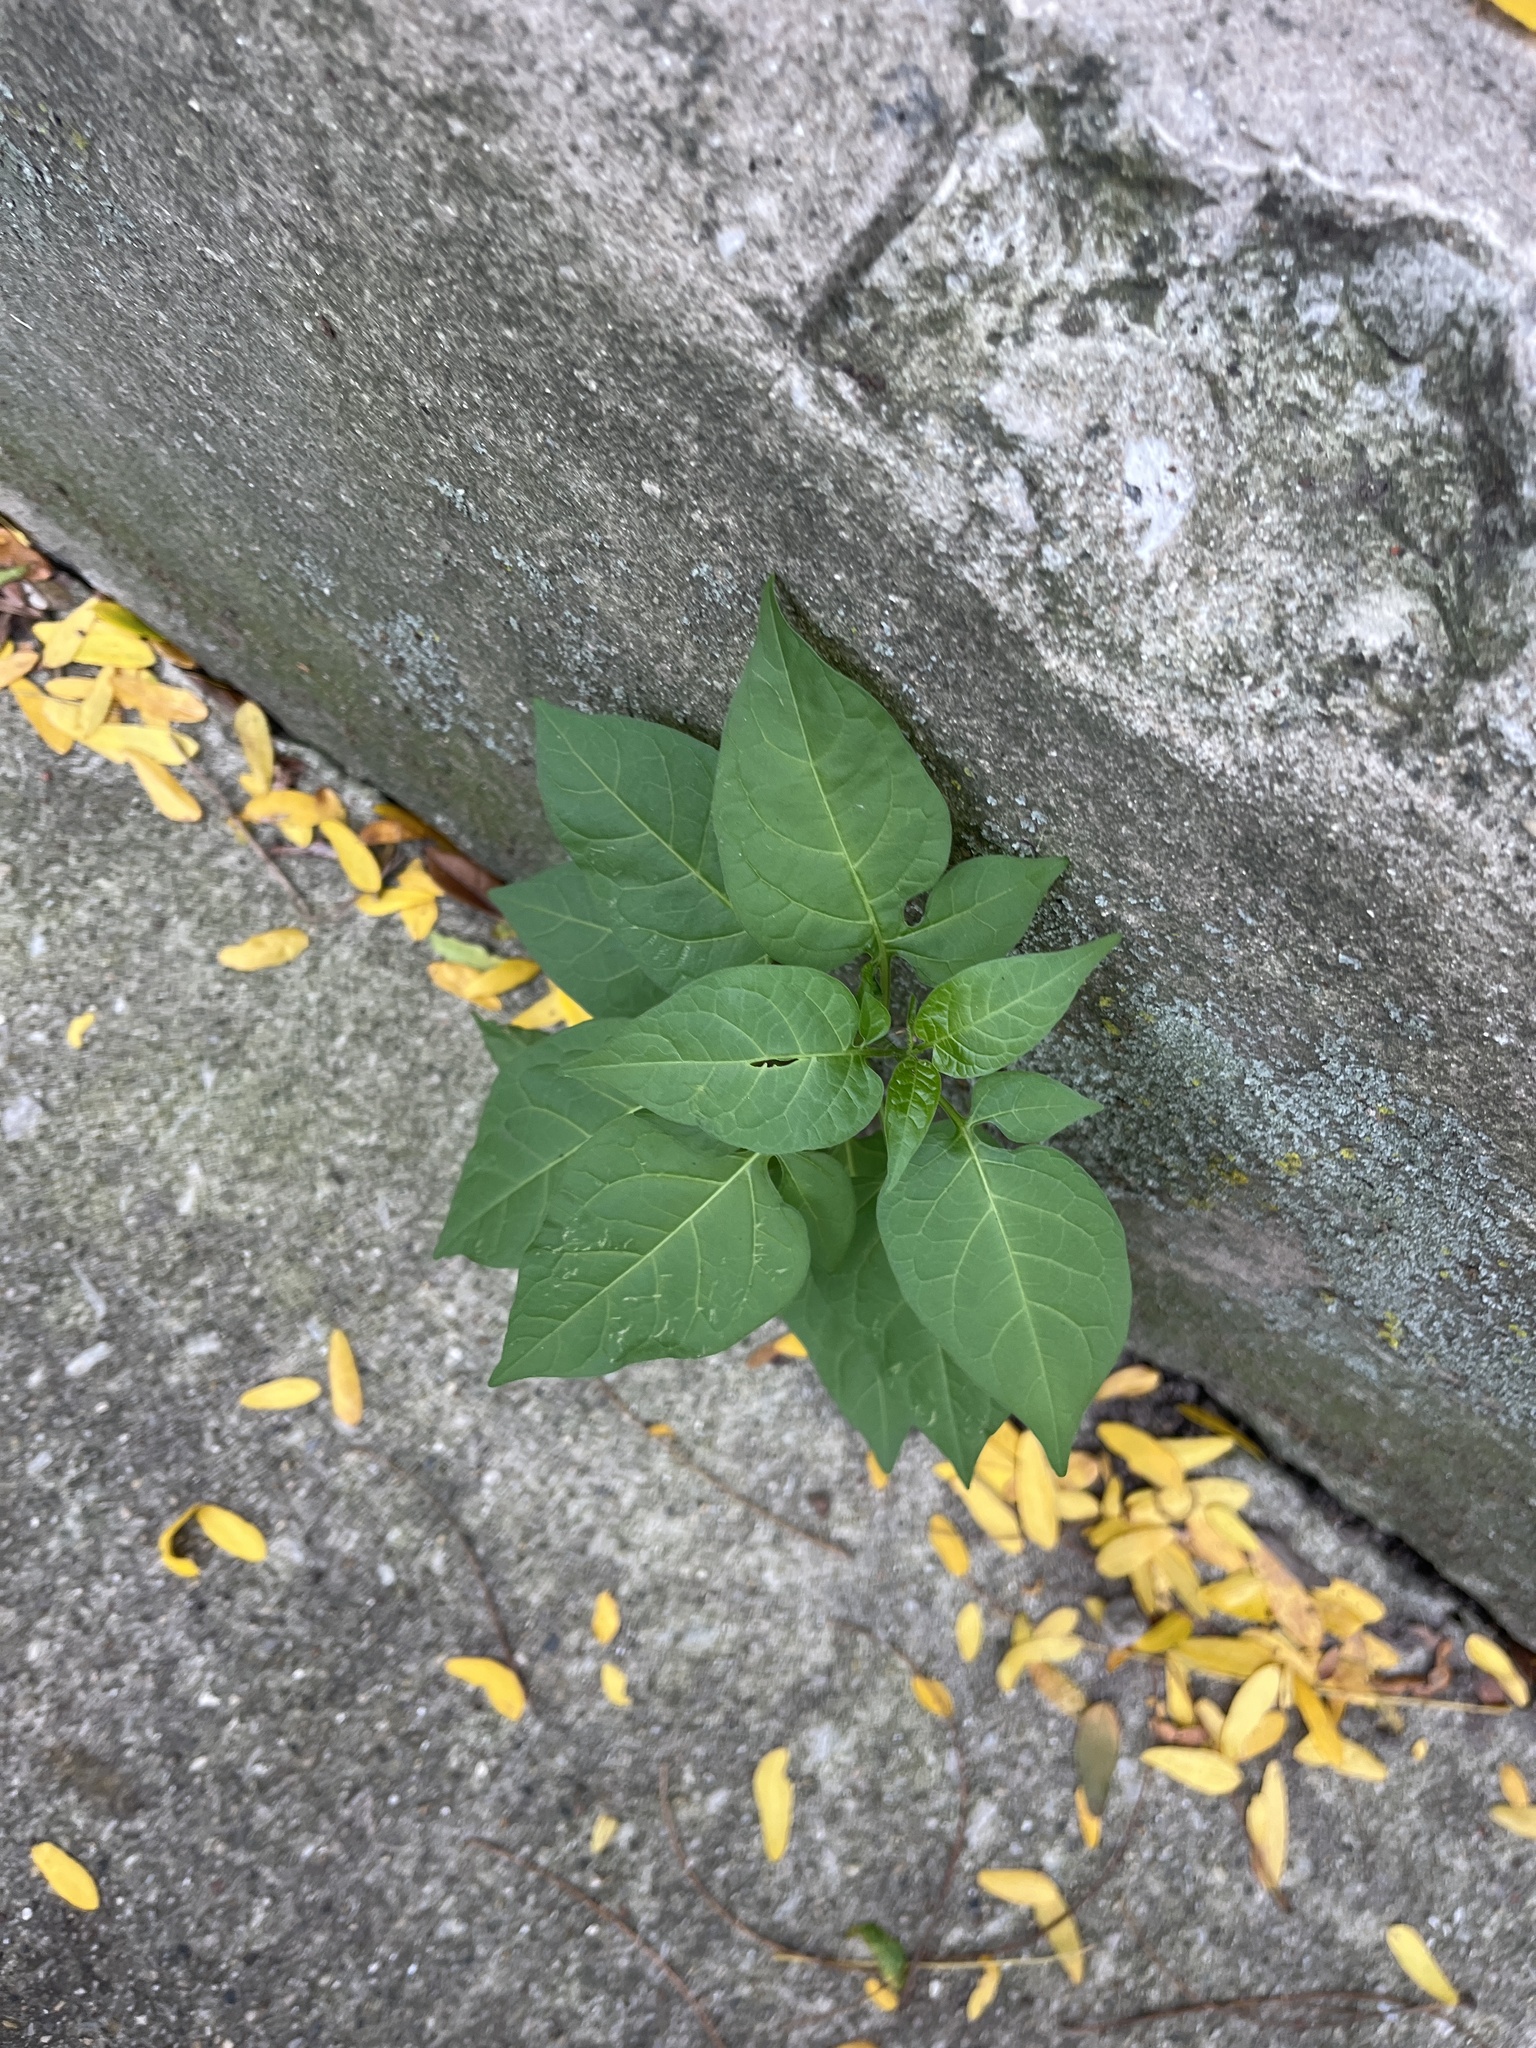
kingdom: Plantae
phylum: Tracheophyta
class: Magnoliopsida
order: Solanales
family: Solanaceae
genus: Solanum
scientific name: Solanum dulcamara
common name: Climbing nightshade
